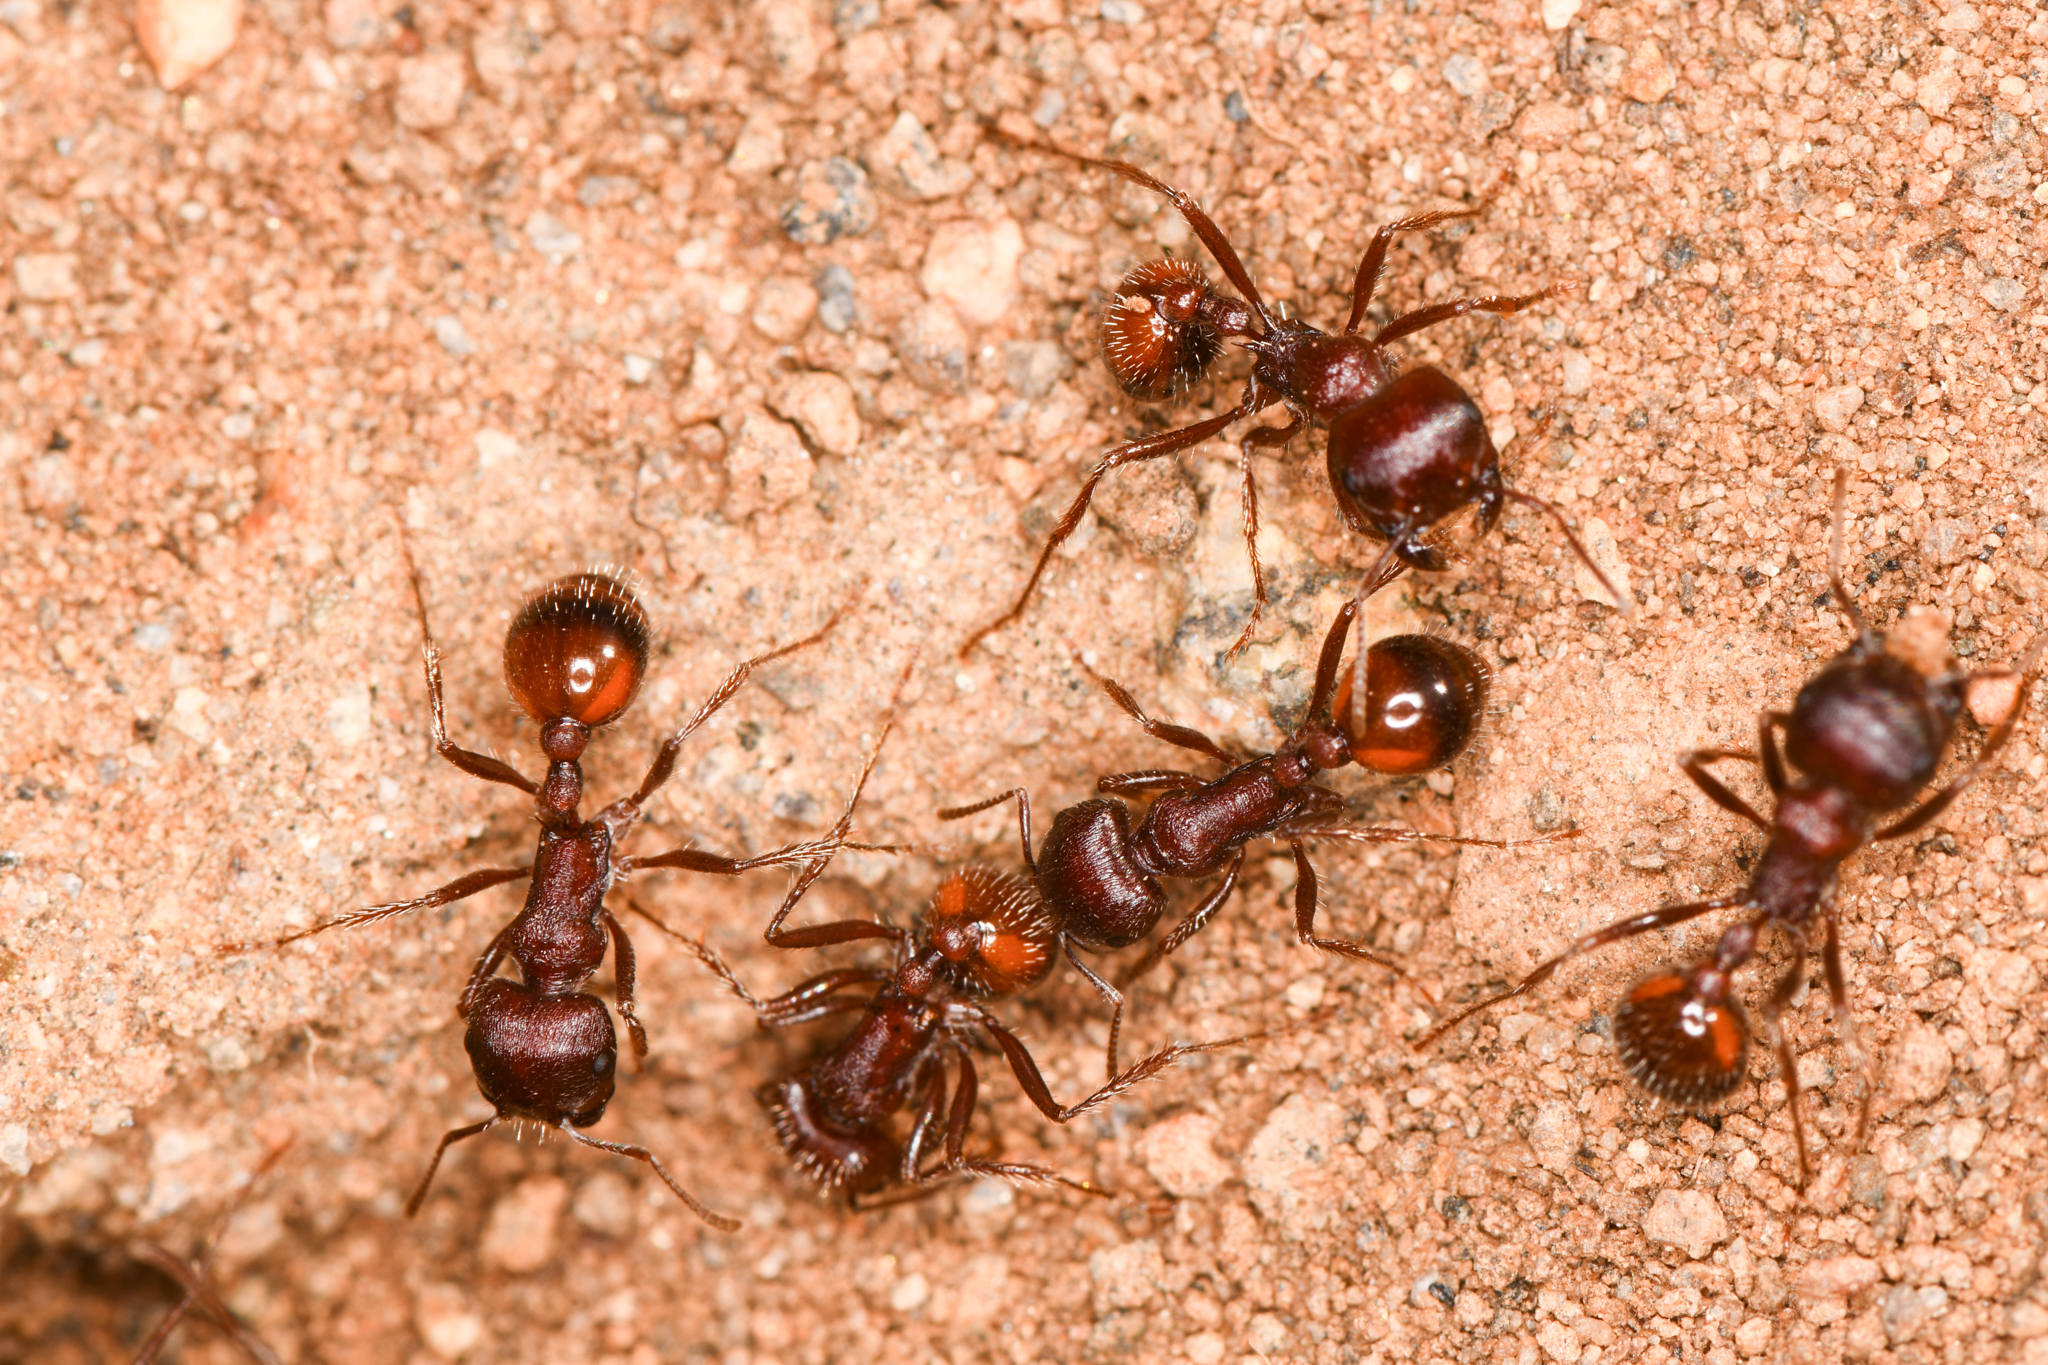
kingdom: Animalia
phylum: Arthropoda
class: Insecta
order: Hymenoptera
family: Formicidae
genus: Pogonomyrmex
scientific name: Pogonomyrmex rugosus
